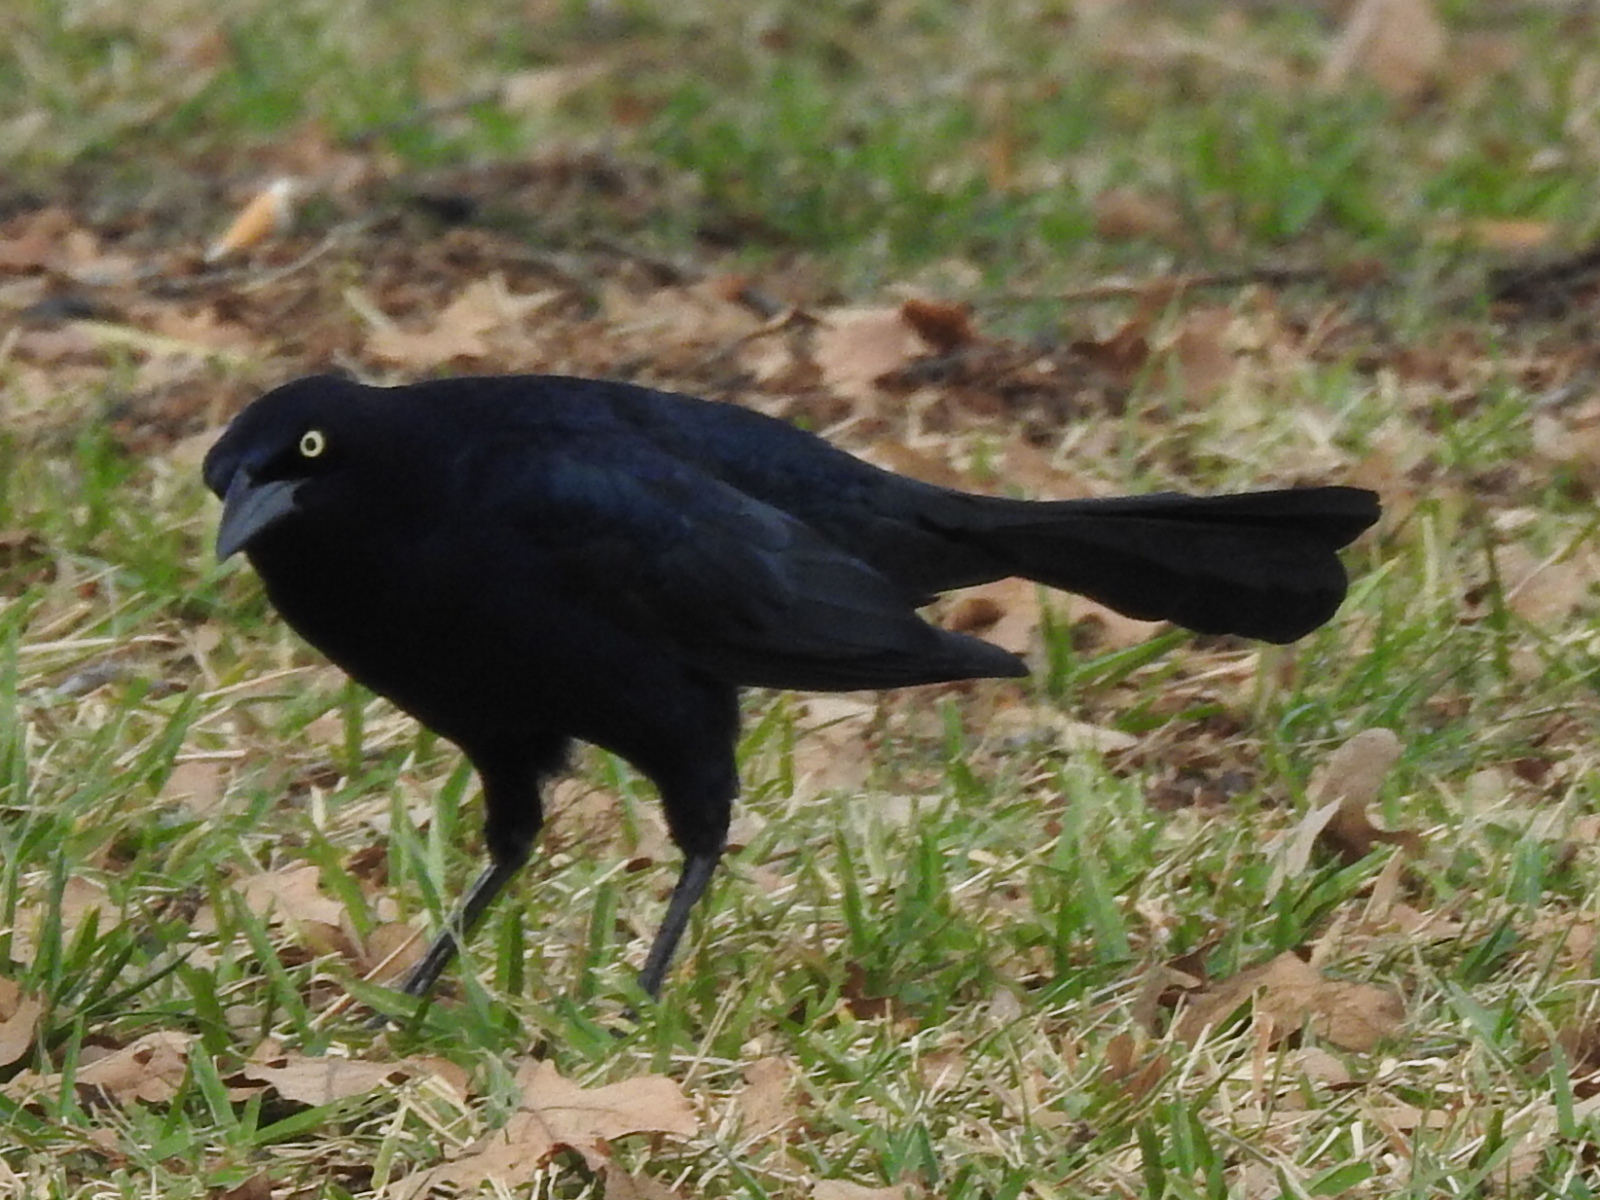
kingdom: Animalia
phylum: Chordata
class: Aves
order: Passeriformes
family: Icteridae
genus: Quiscalus
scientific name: Quiscalus mexicanus
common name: Great-tailed grackle
